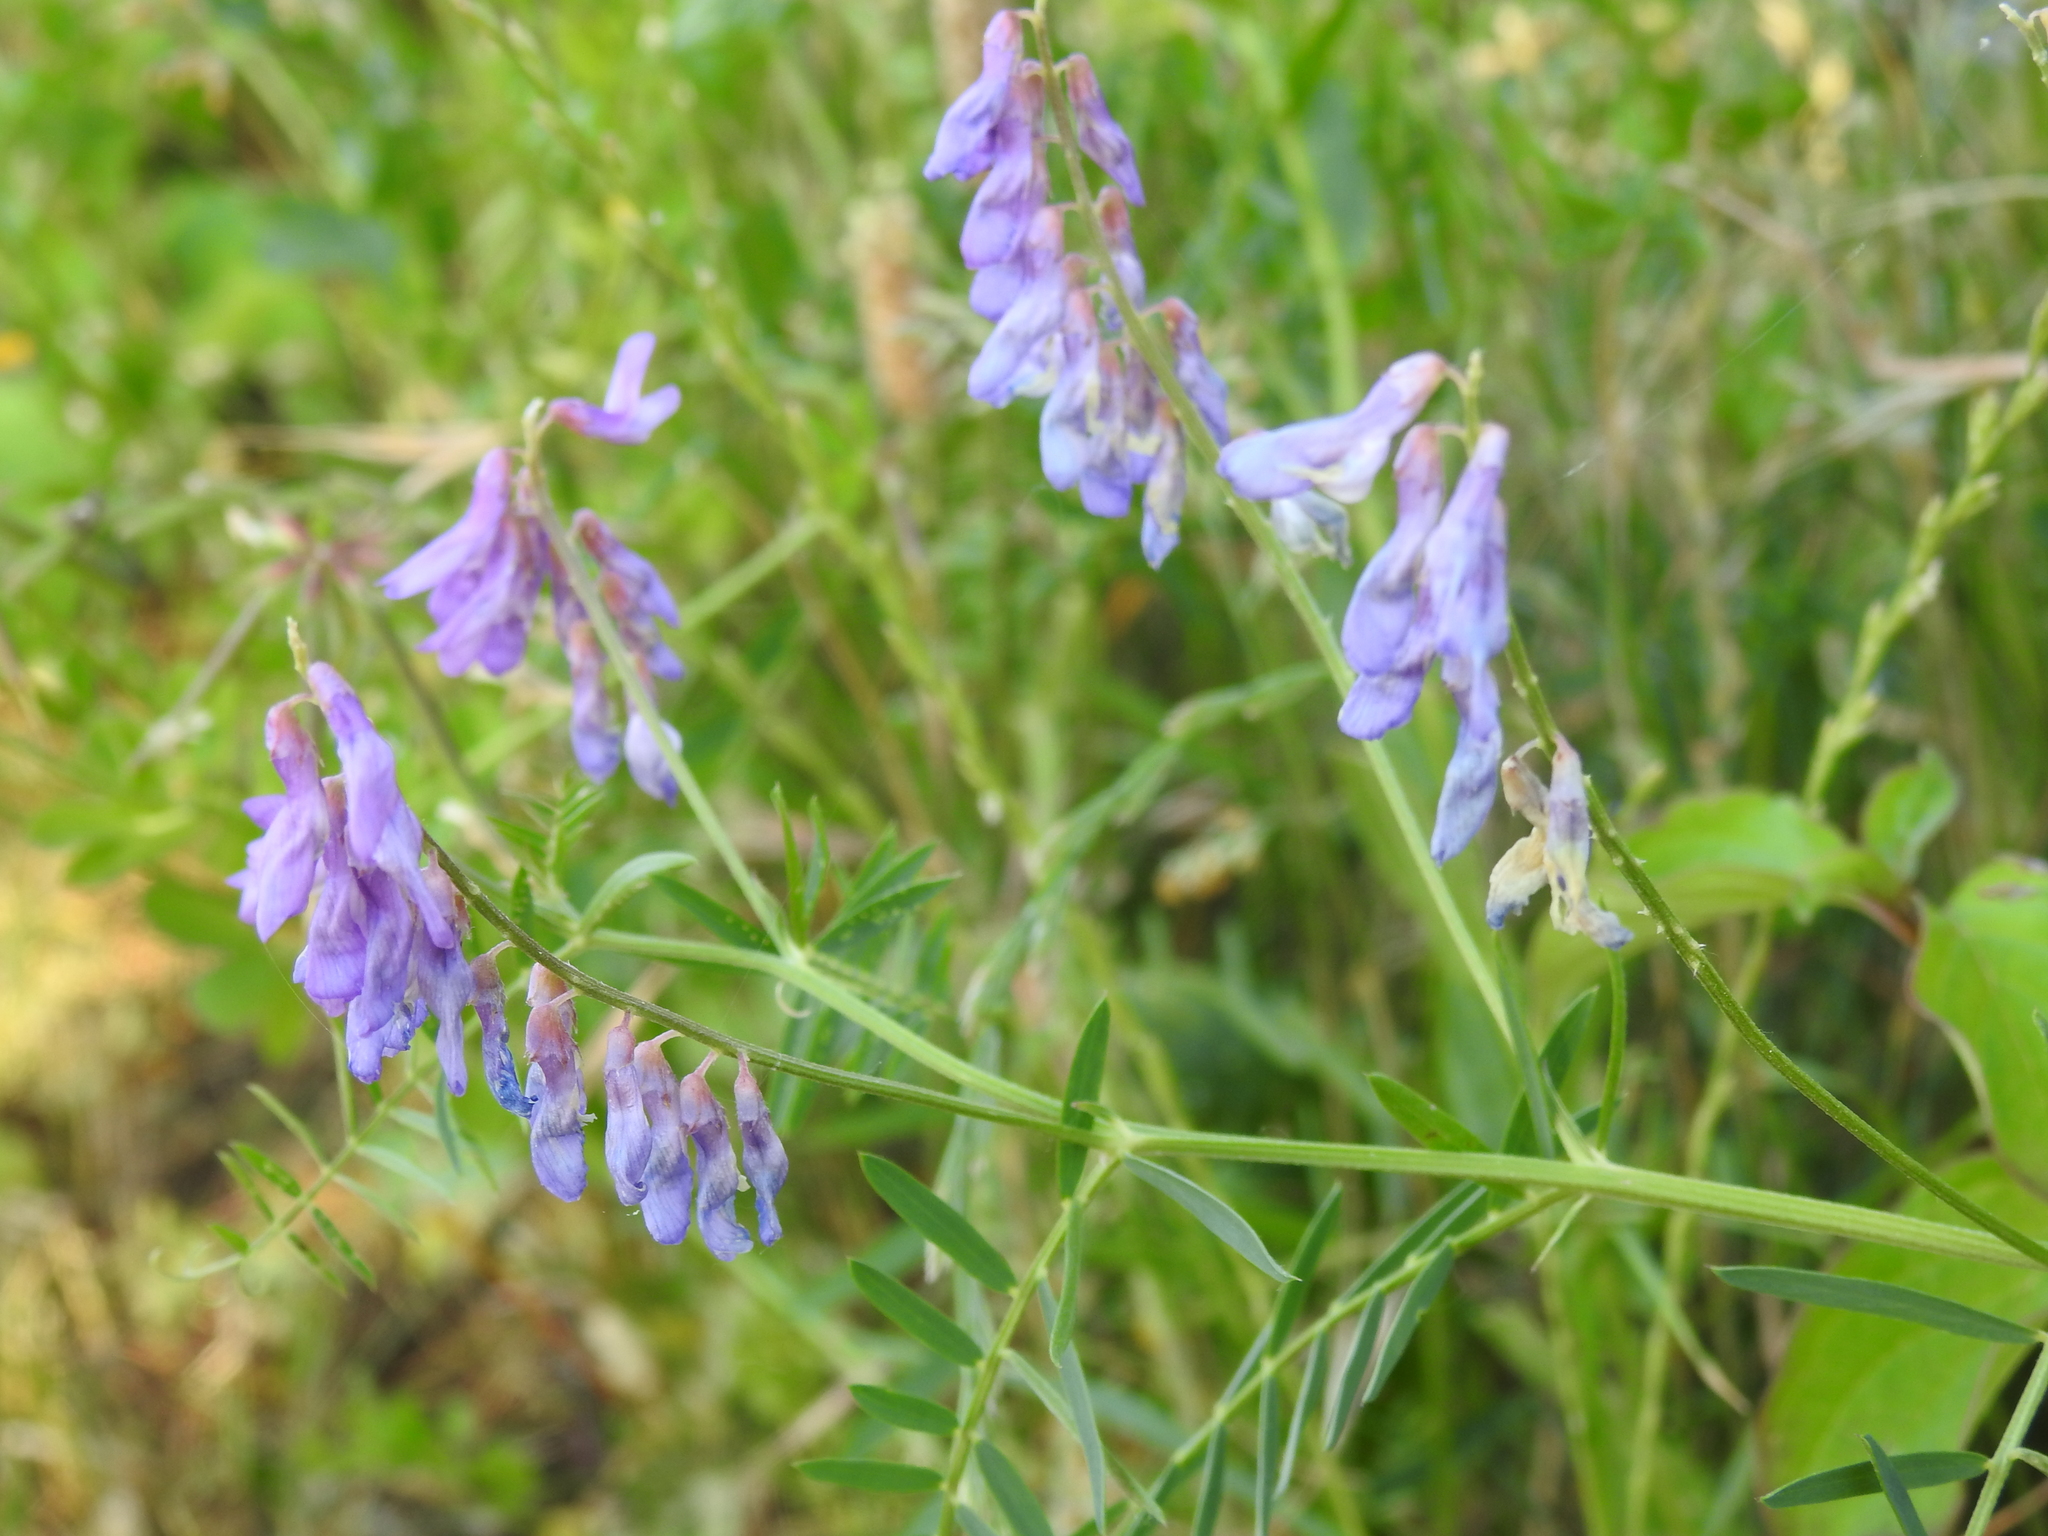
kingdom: Plantae
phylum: Tracheophyta
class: Magnoliopsida
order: Fabales
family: Fabaceae
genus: Vicia
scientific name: Vicia tenuifolia
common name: Fine-leaved vetch
